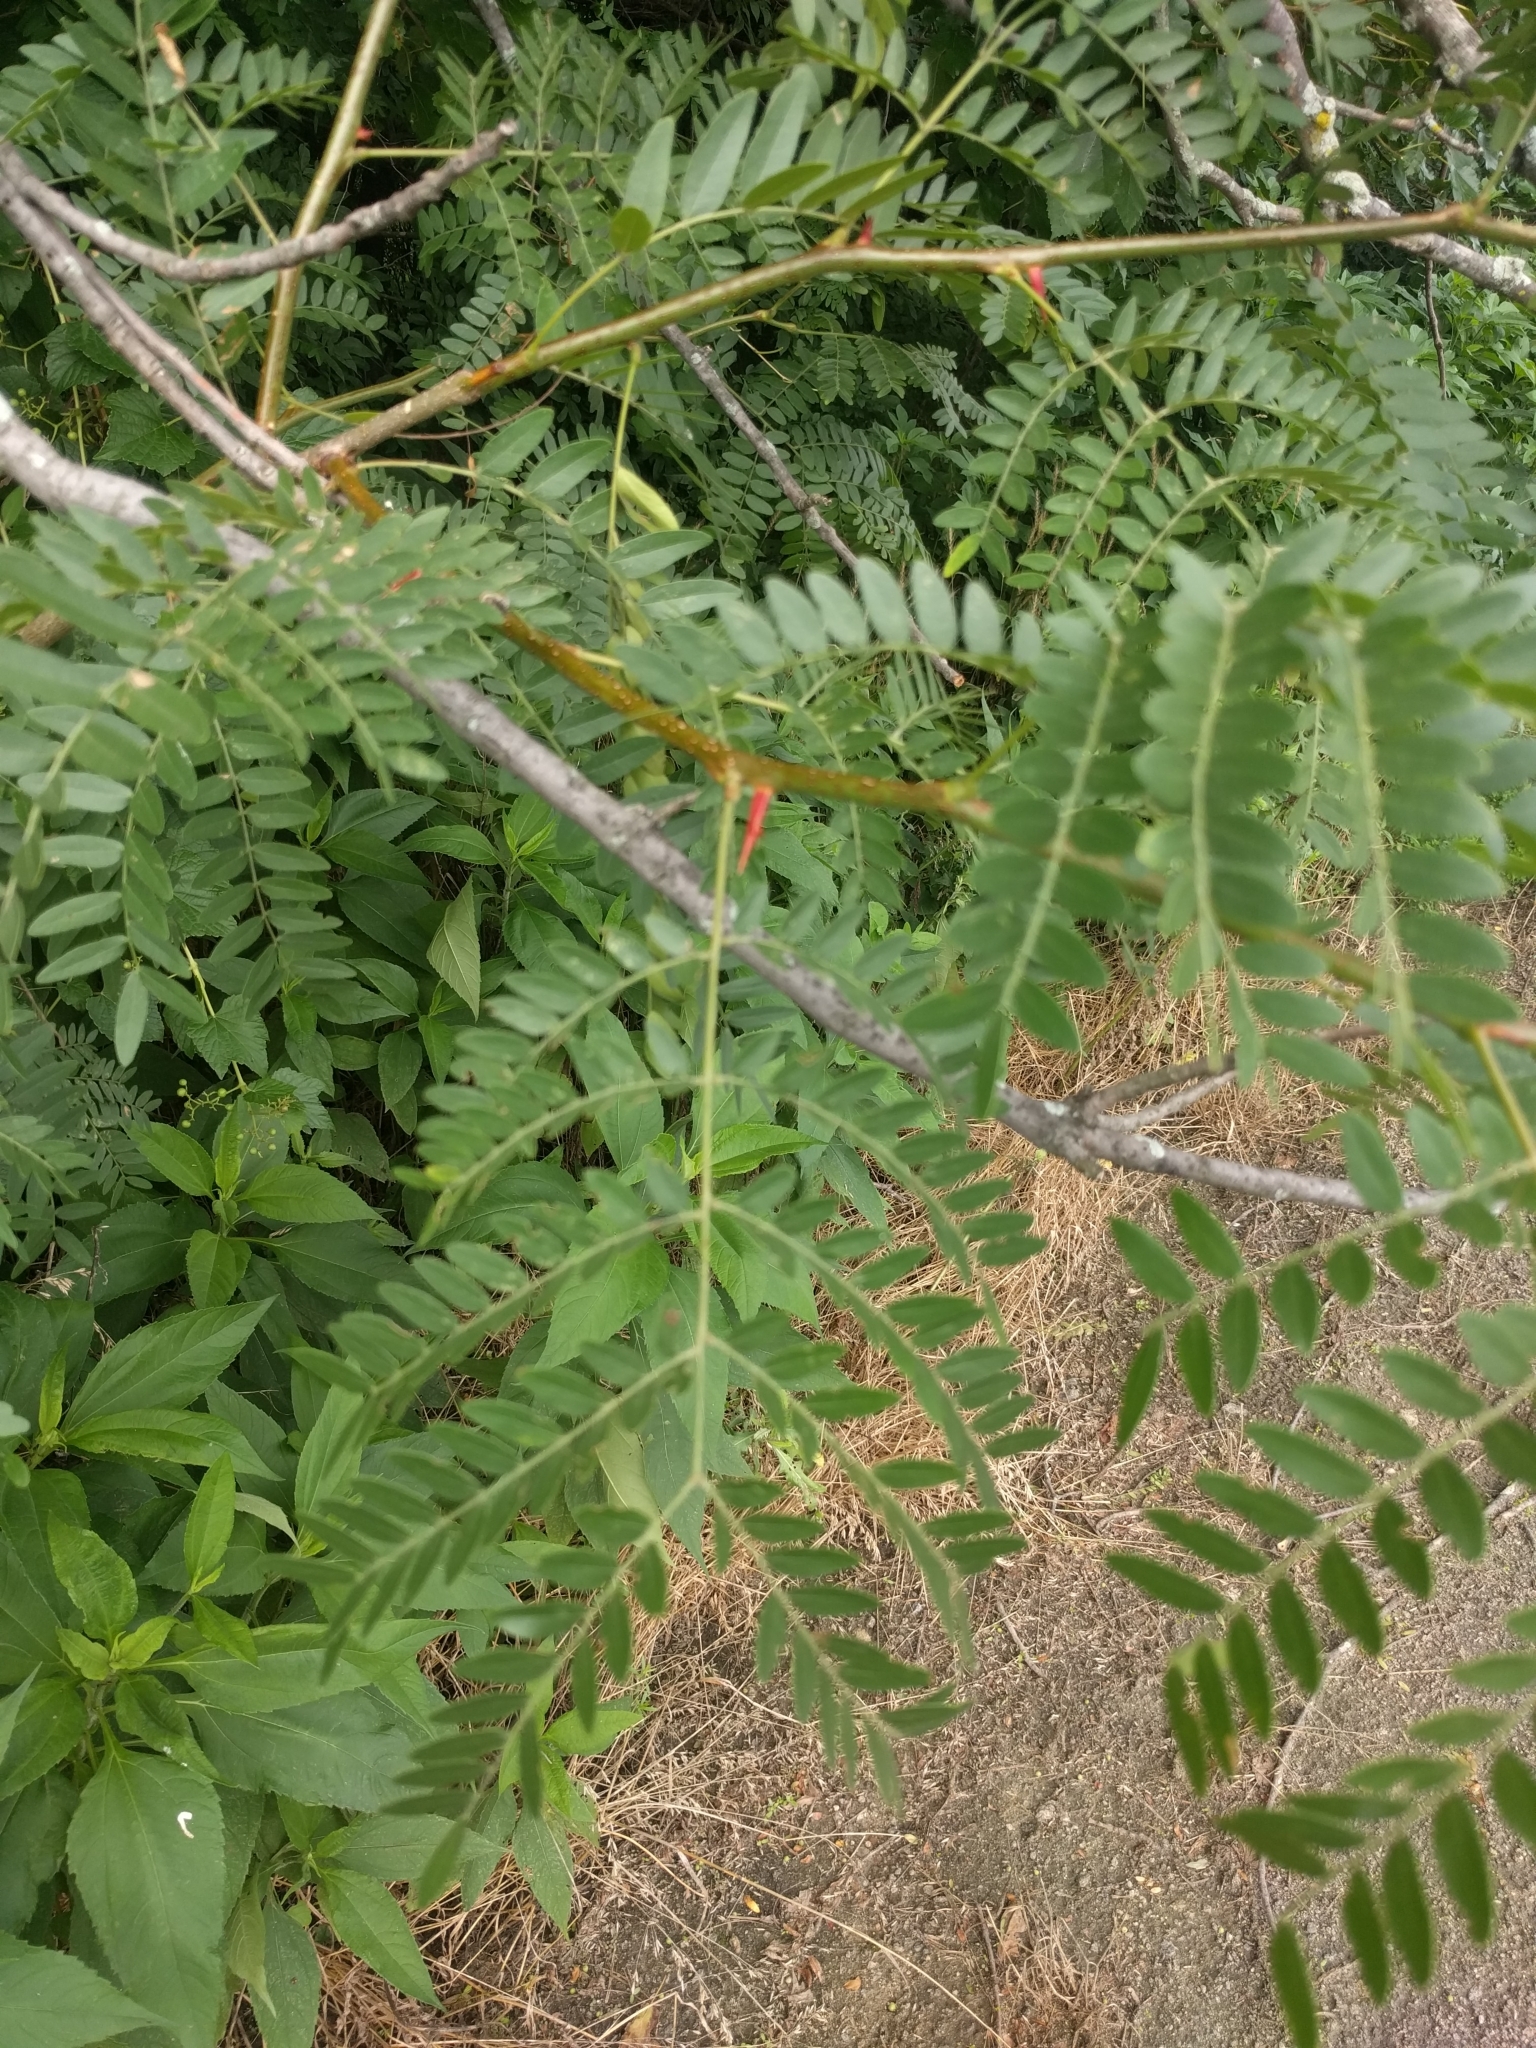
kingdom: Plantae
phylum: Tracheophyta
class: Magnoliopsida
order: Fabales
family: Fabaceae
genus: Gleditsia
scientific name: Gleditsia triacanthos
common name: Common honeylocust
